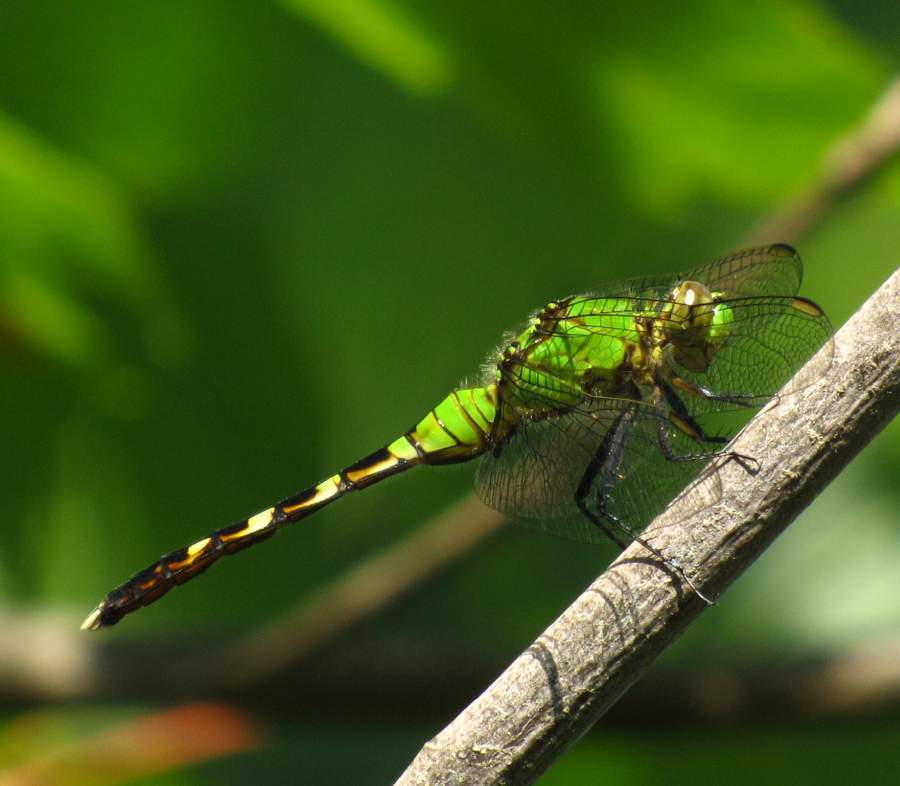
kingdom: Animalia
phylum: Arthropoda
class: Insecta
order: Odonata
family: Libellulidae
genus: Erythemis
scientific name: Erythemis simplicicollis
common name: Eastern pondhawk
